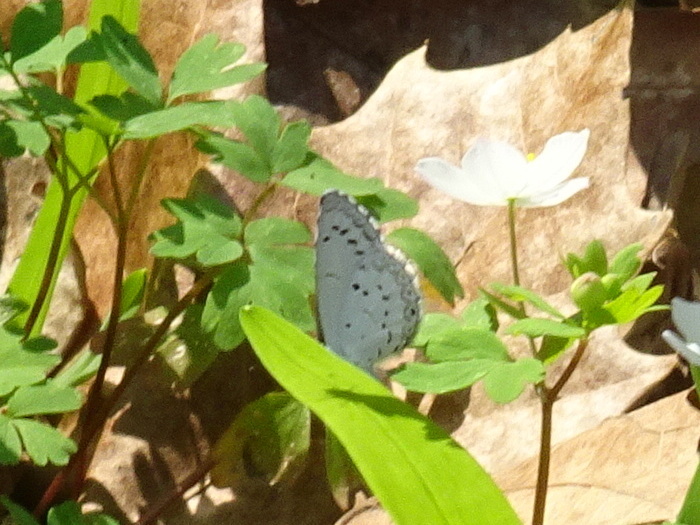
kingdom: Animalia
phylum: Arthropoda
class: Insecta
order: Lepidoptera
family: Lycaenidae
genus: Celastrina
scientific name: Celastrina ladon
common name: Spring azure
